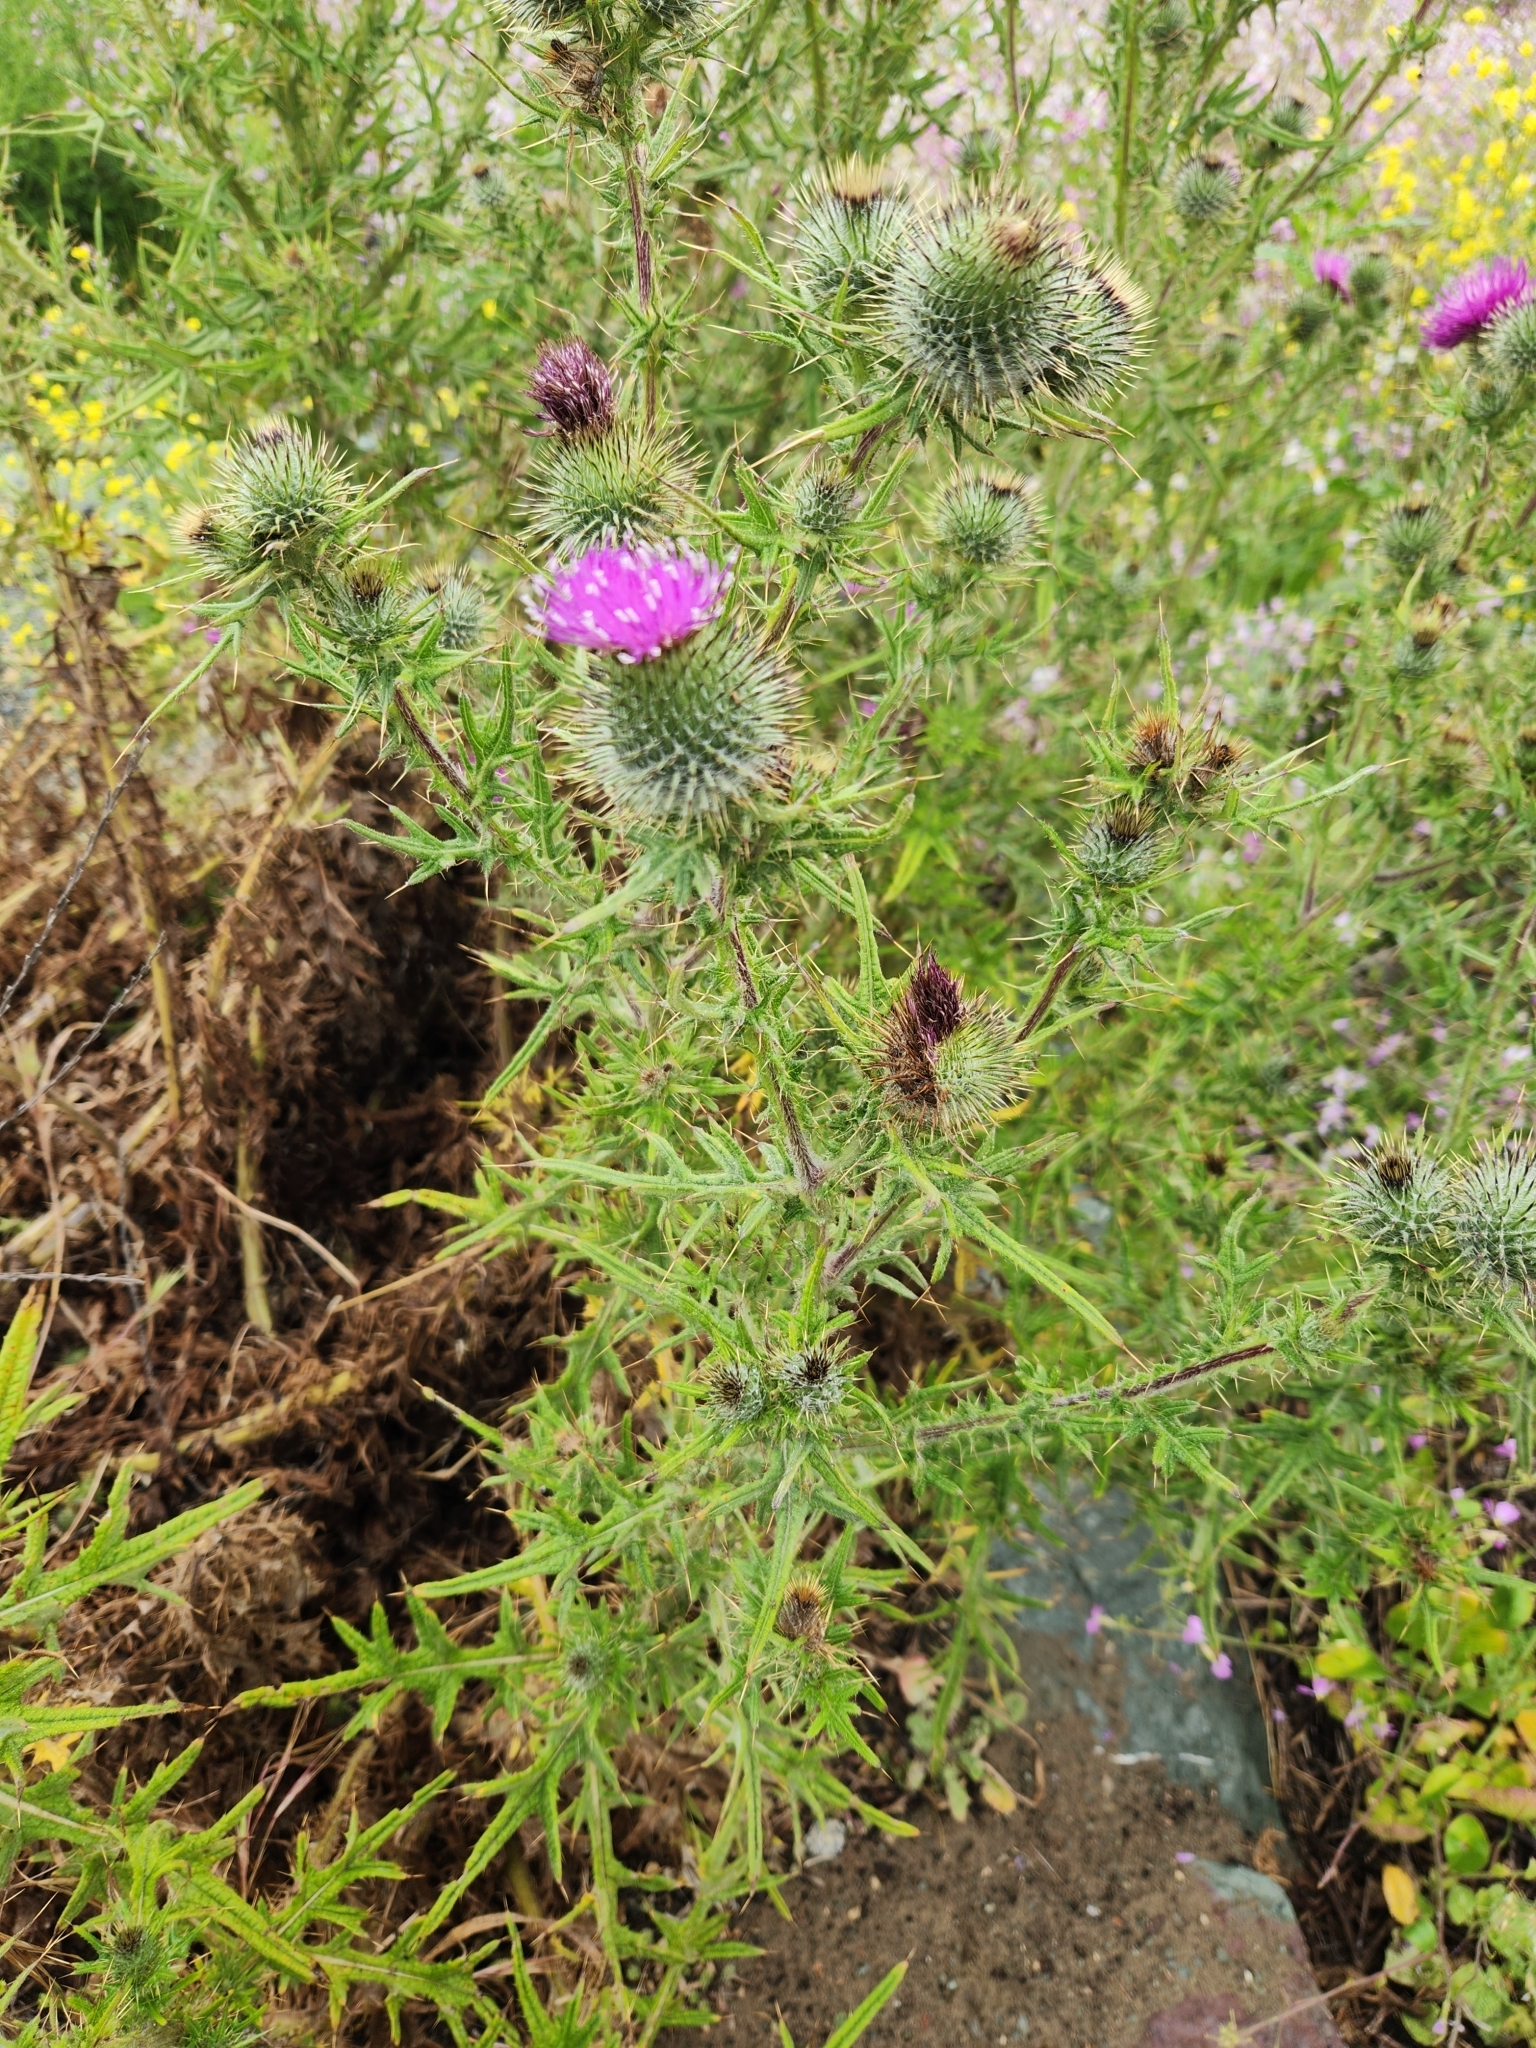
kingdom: Plantae
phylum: Tracheophyta
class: Magnoliopsida
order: Asterales
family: Asteraceae
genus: Cirsium
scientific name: Cirsium vulgare
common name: Bull thistle
